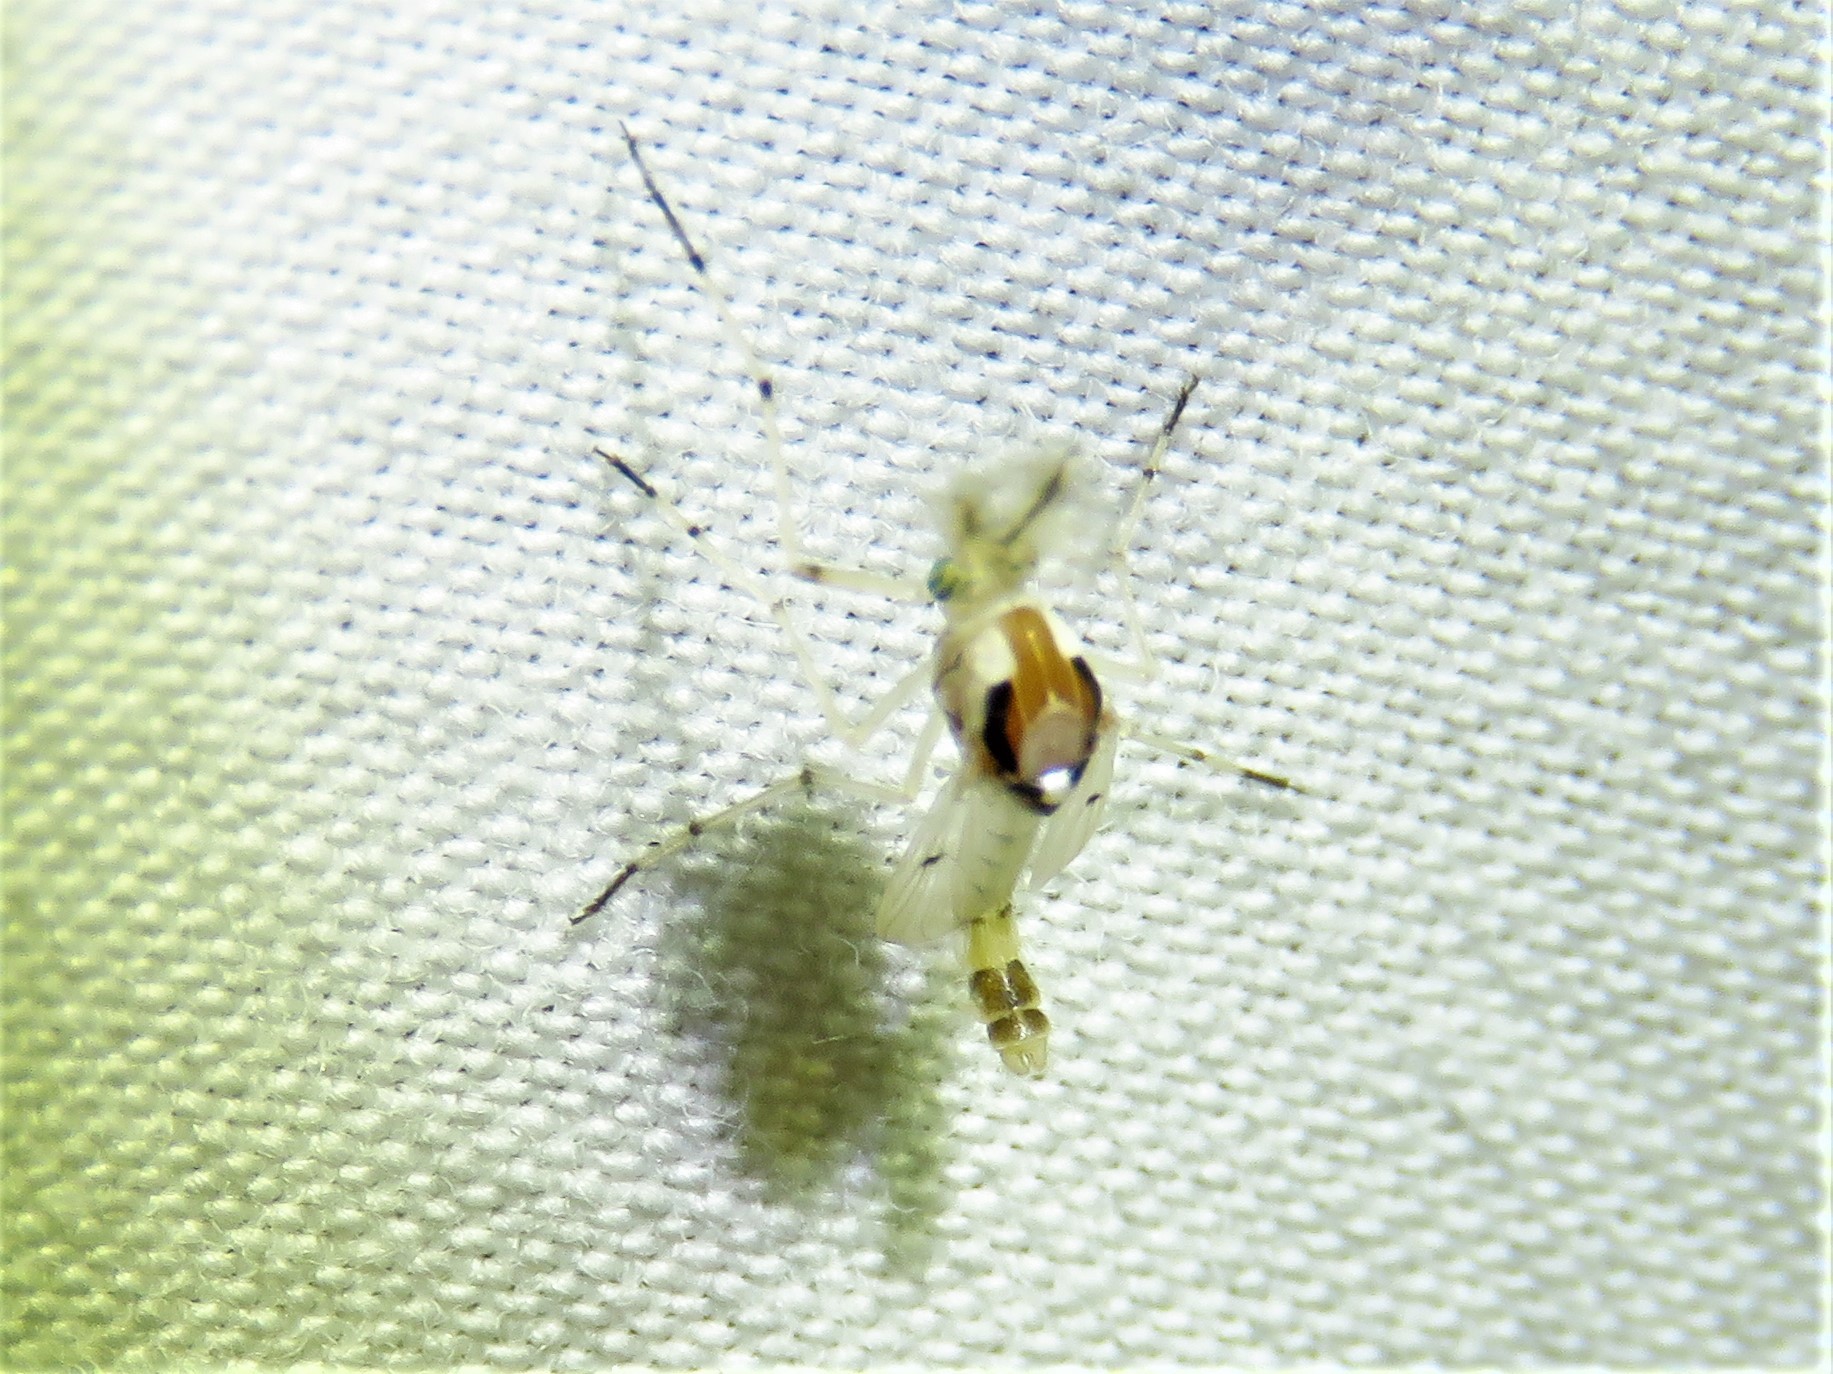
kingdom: Animalia
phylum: Arthropoda
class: Insecta
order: Diptera
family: Chironomidae
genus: Coelotanypus
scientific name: Coelotanypus concinnus
